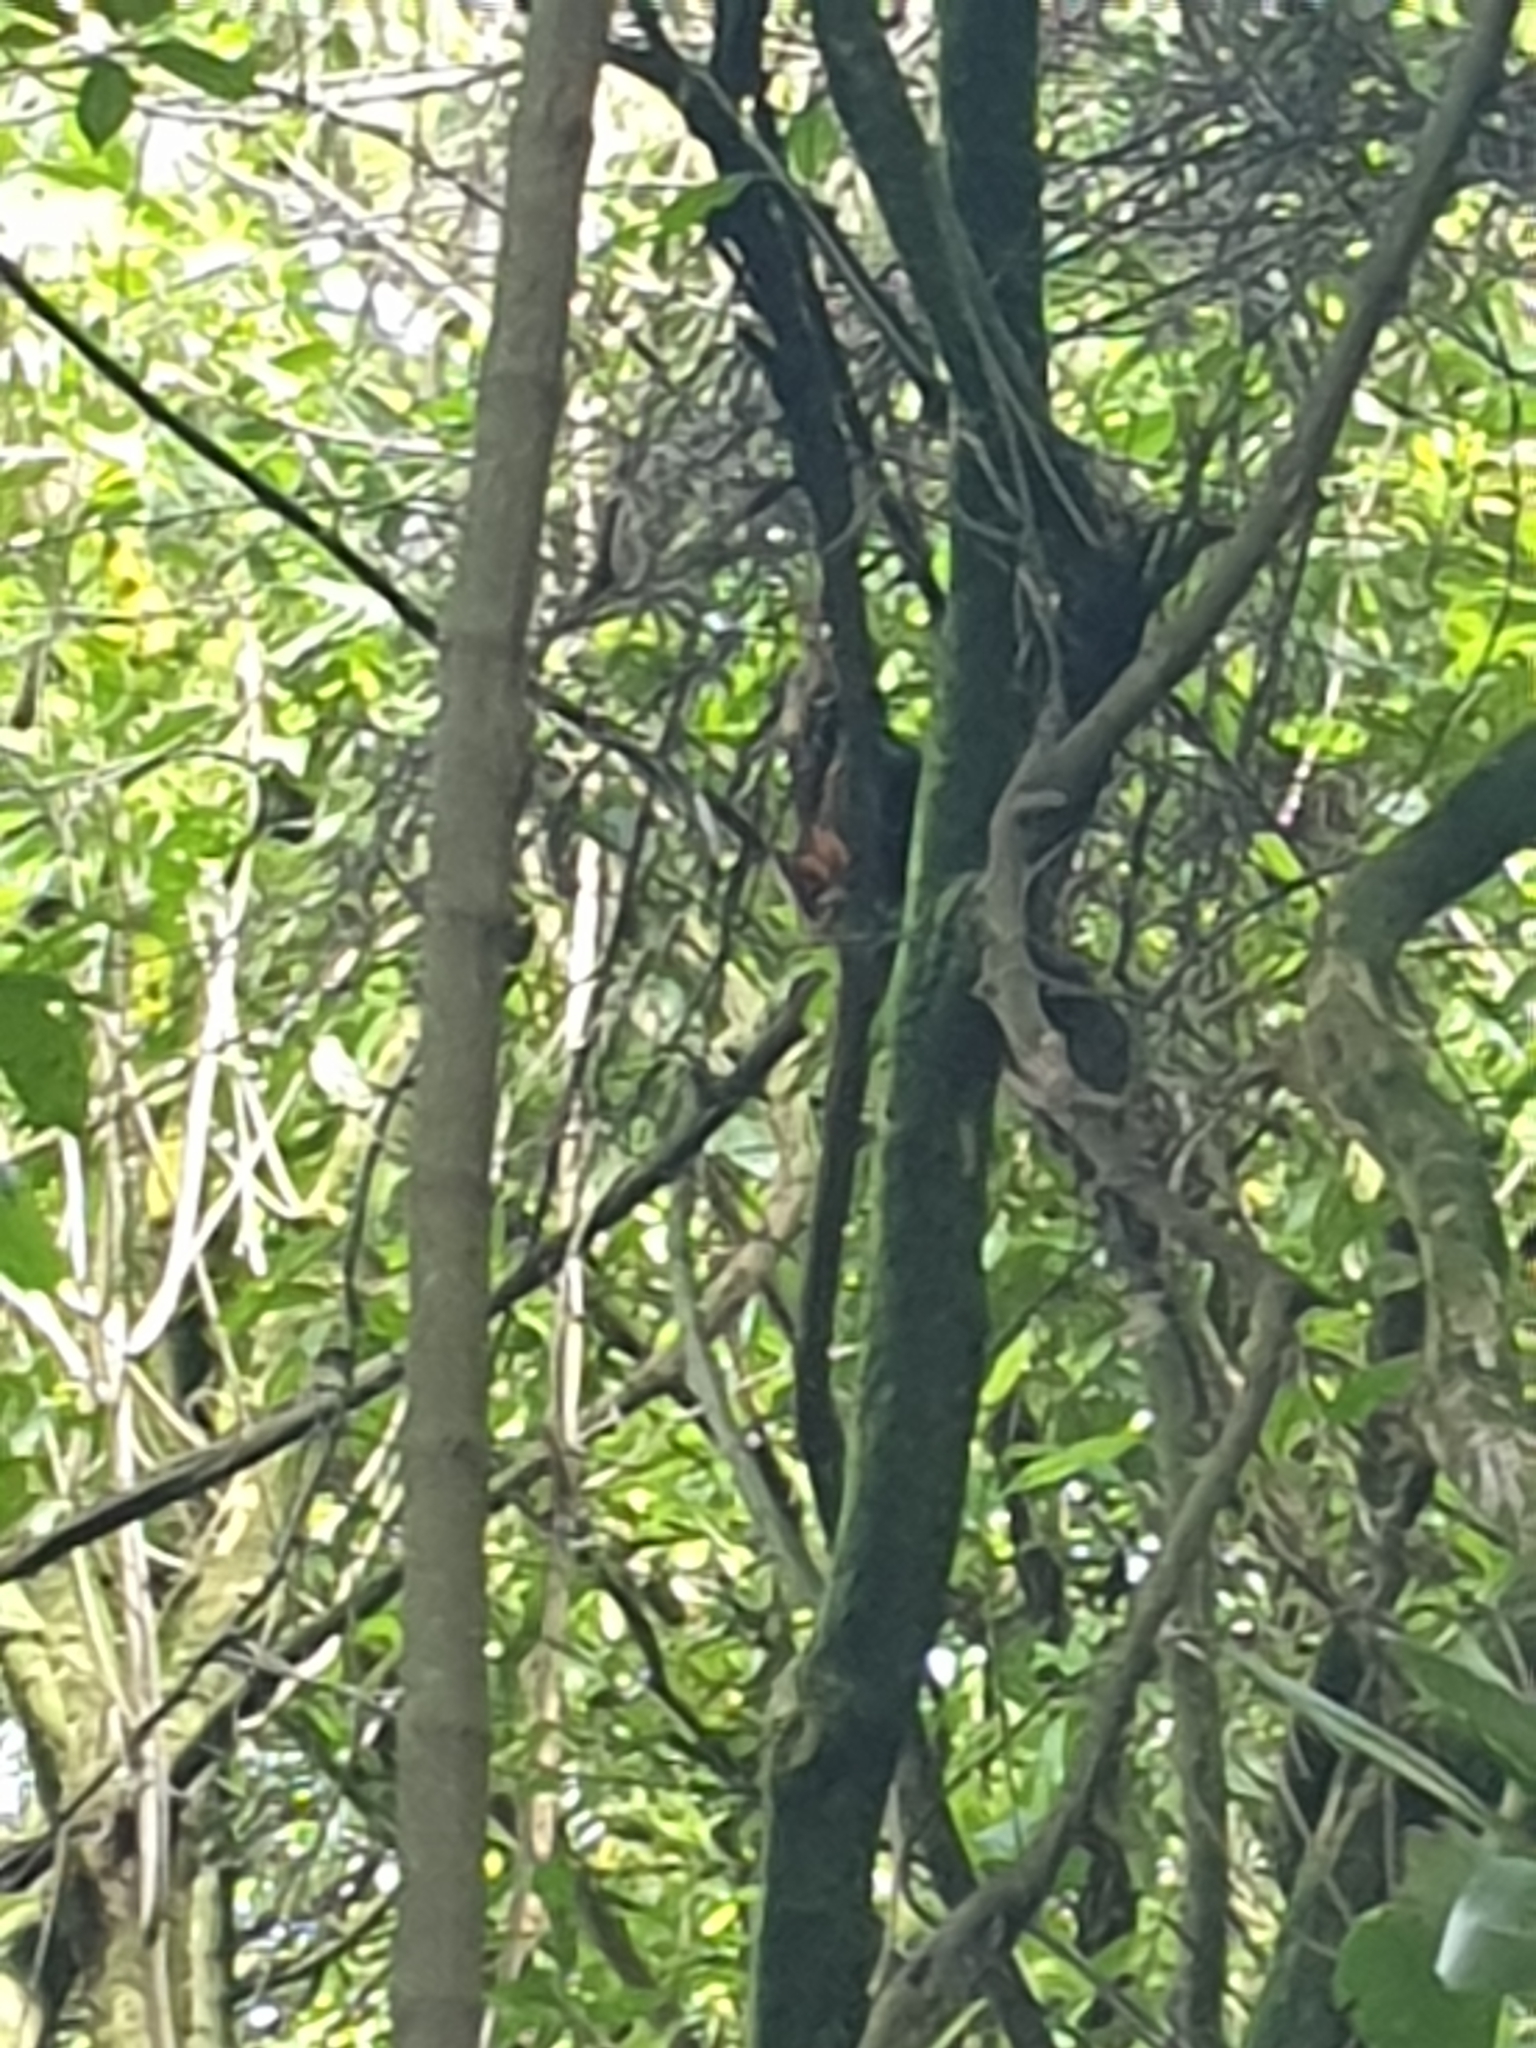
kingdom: Animalia
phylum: Chordata
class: Aves
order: Psittaciformes
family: Psittacidae
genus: Nestor
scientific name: Nestor meridionalis
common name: New zealand kaka
